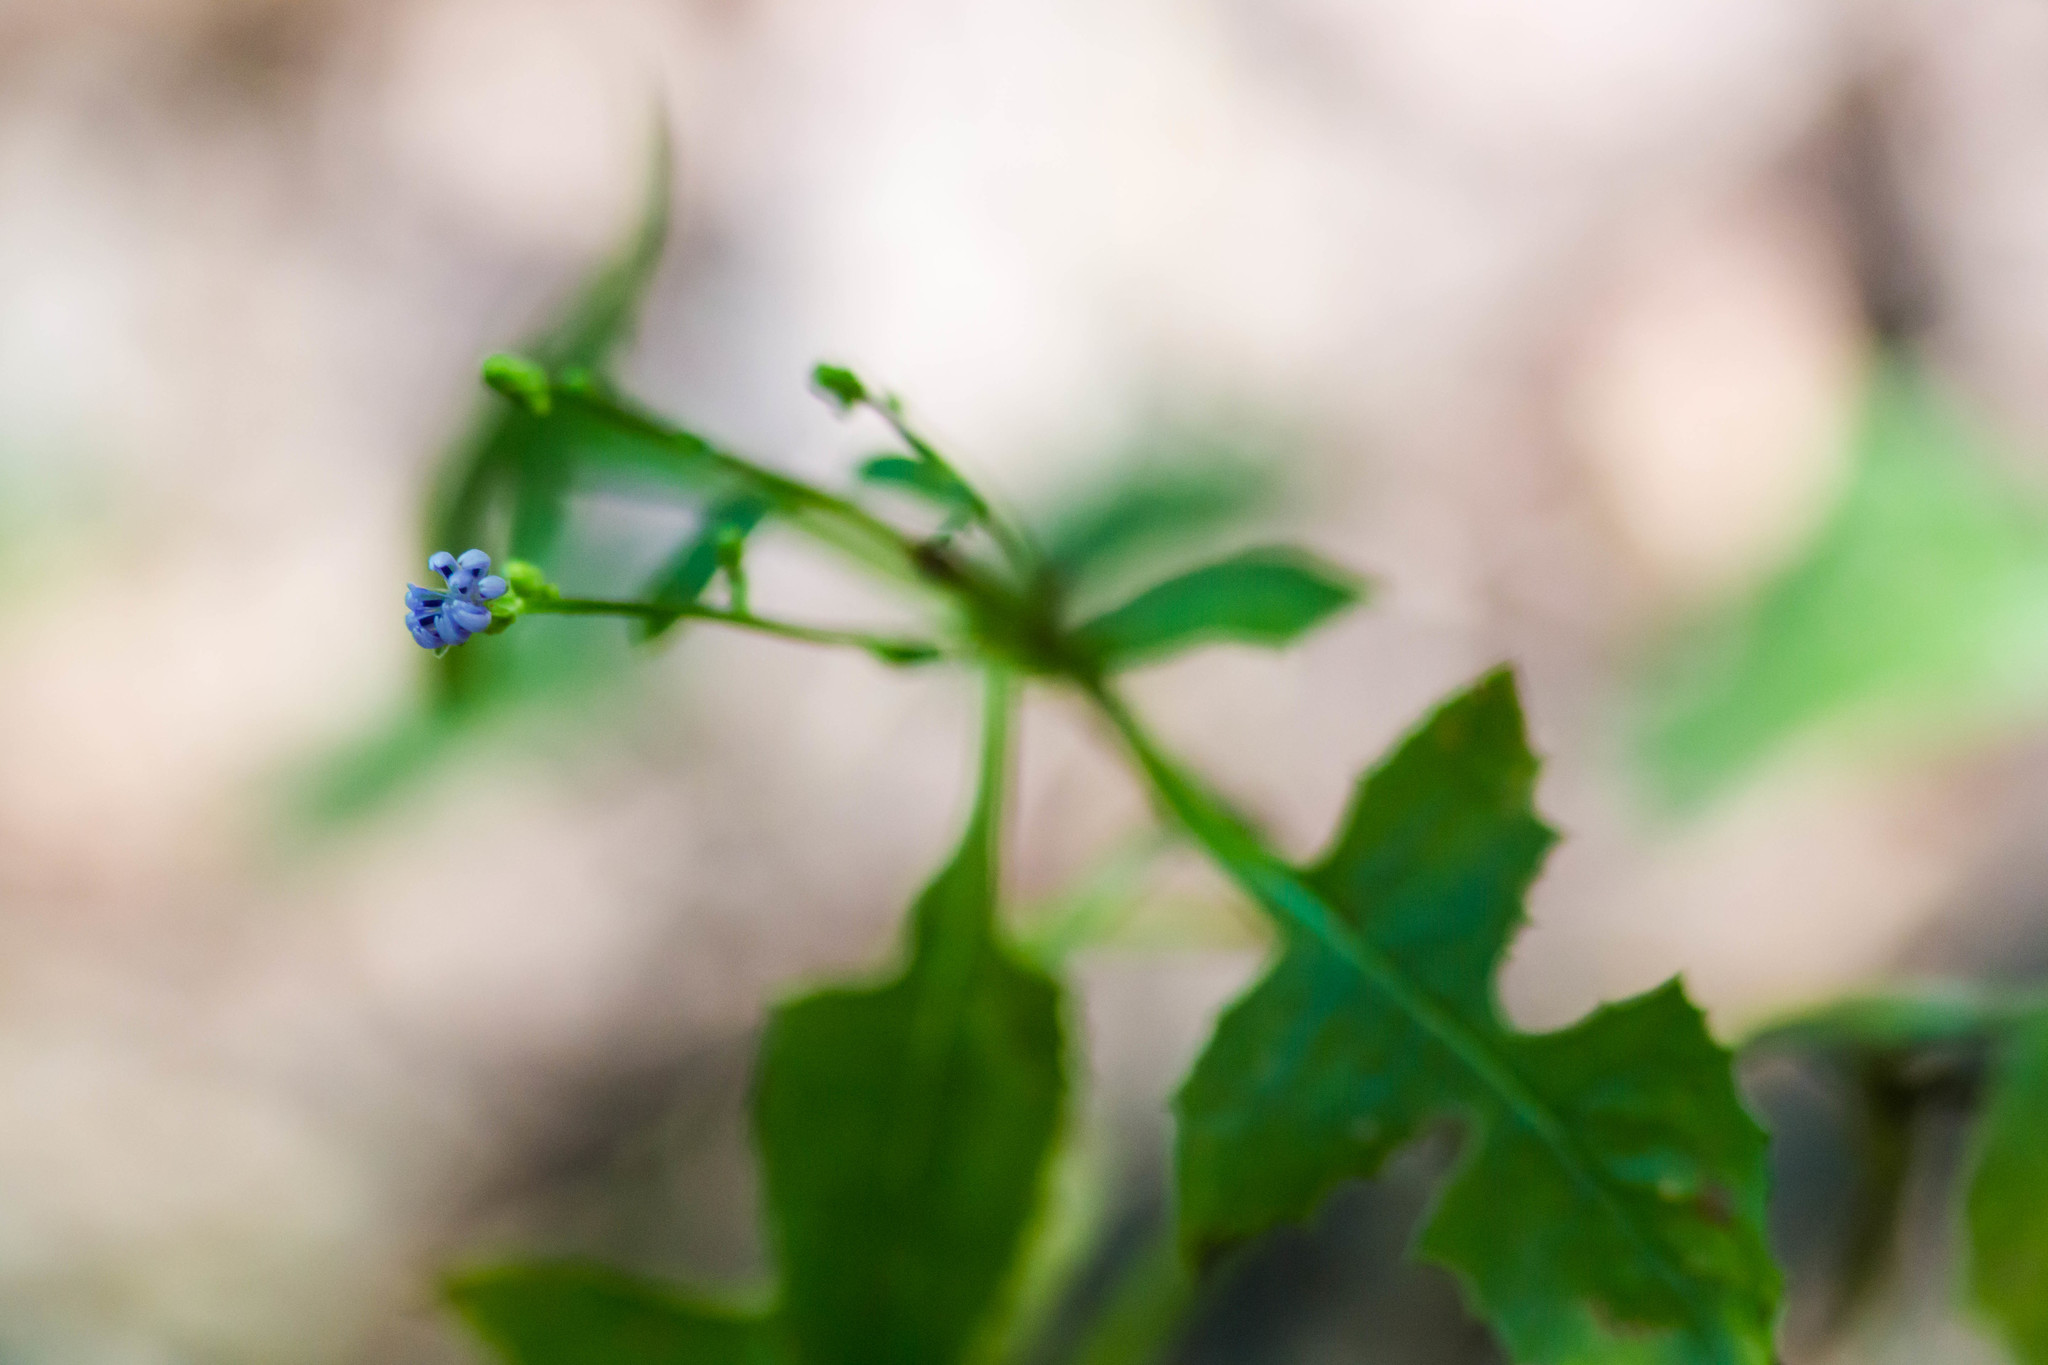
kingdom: Plantae
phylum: Tracheophyta
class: Magnoliopsida
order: Asterales
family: Asteraceae
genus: Lactuca
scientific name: Lactuca floridana
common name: Woodland lettuce
